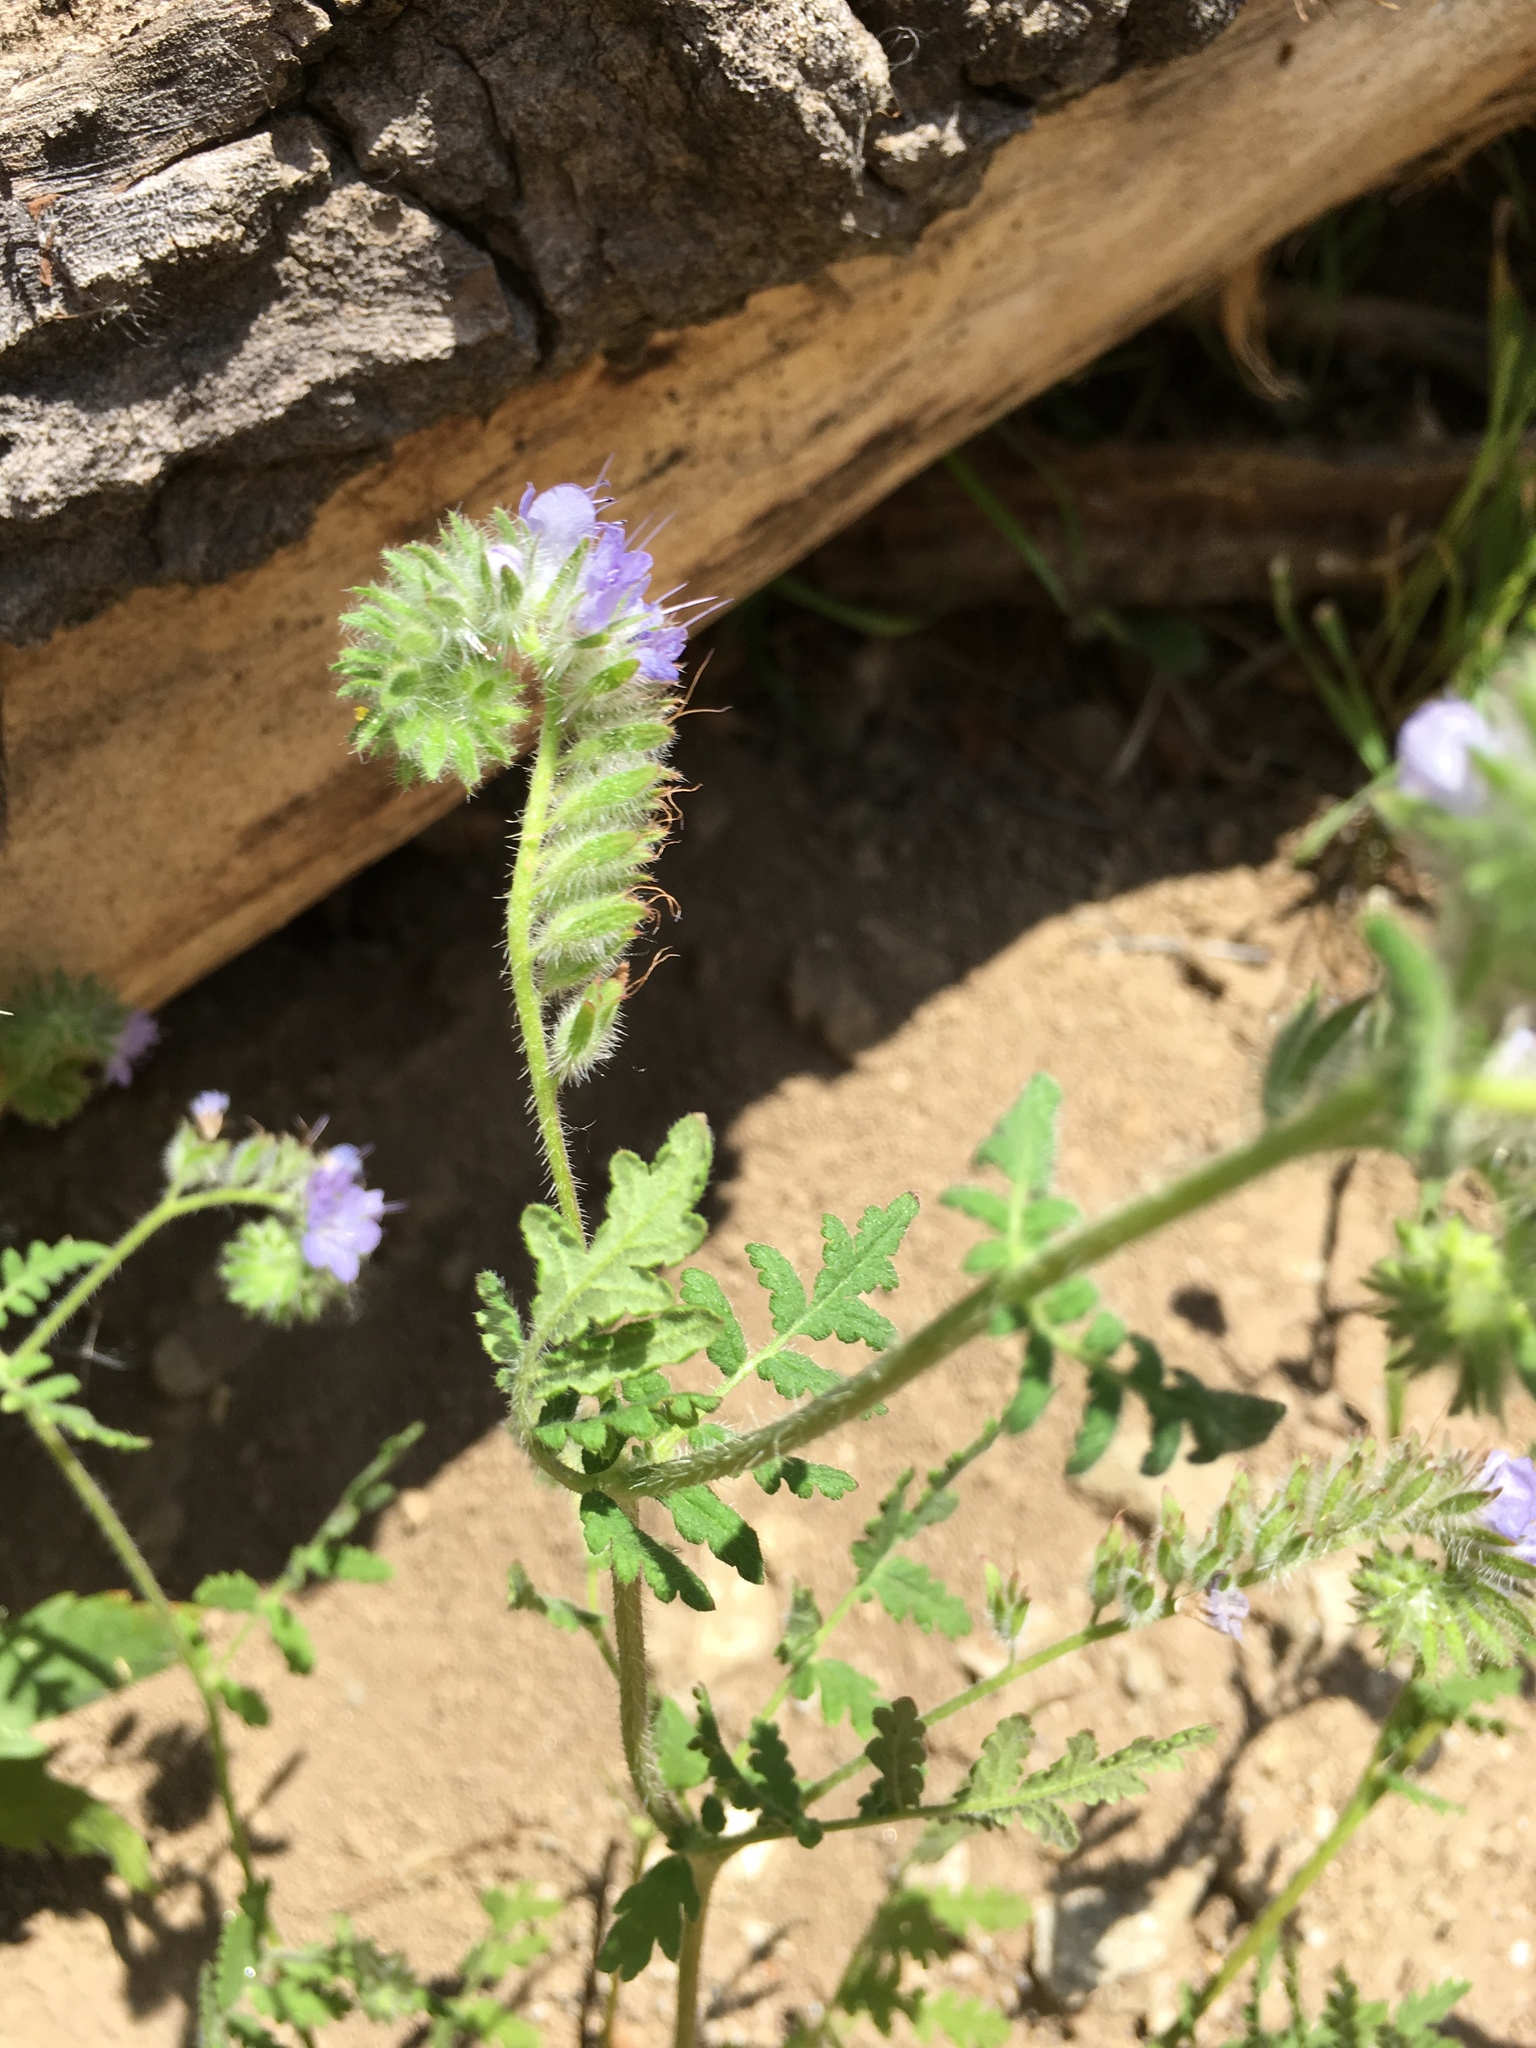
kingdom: Plantae
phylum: Tracheophyta
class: Magnoliopsida
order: Boraginales
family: Hydrophyllaceae
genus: Phacelia
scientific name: Phacelia distans
